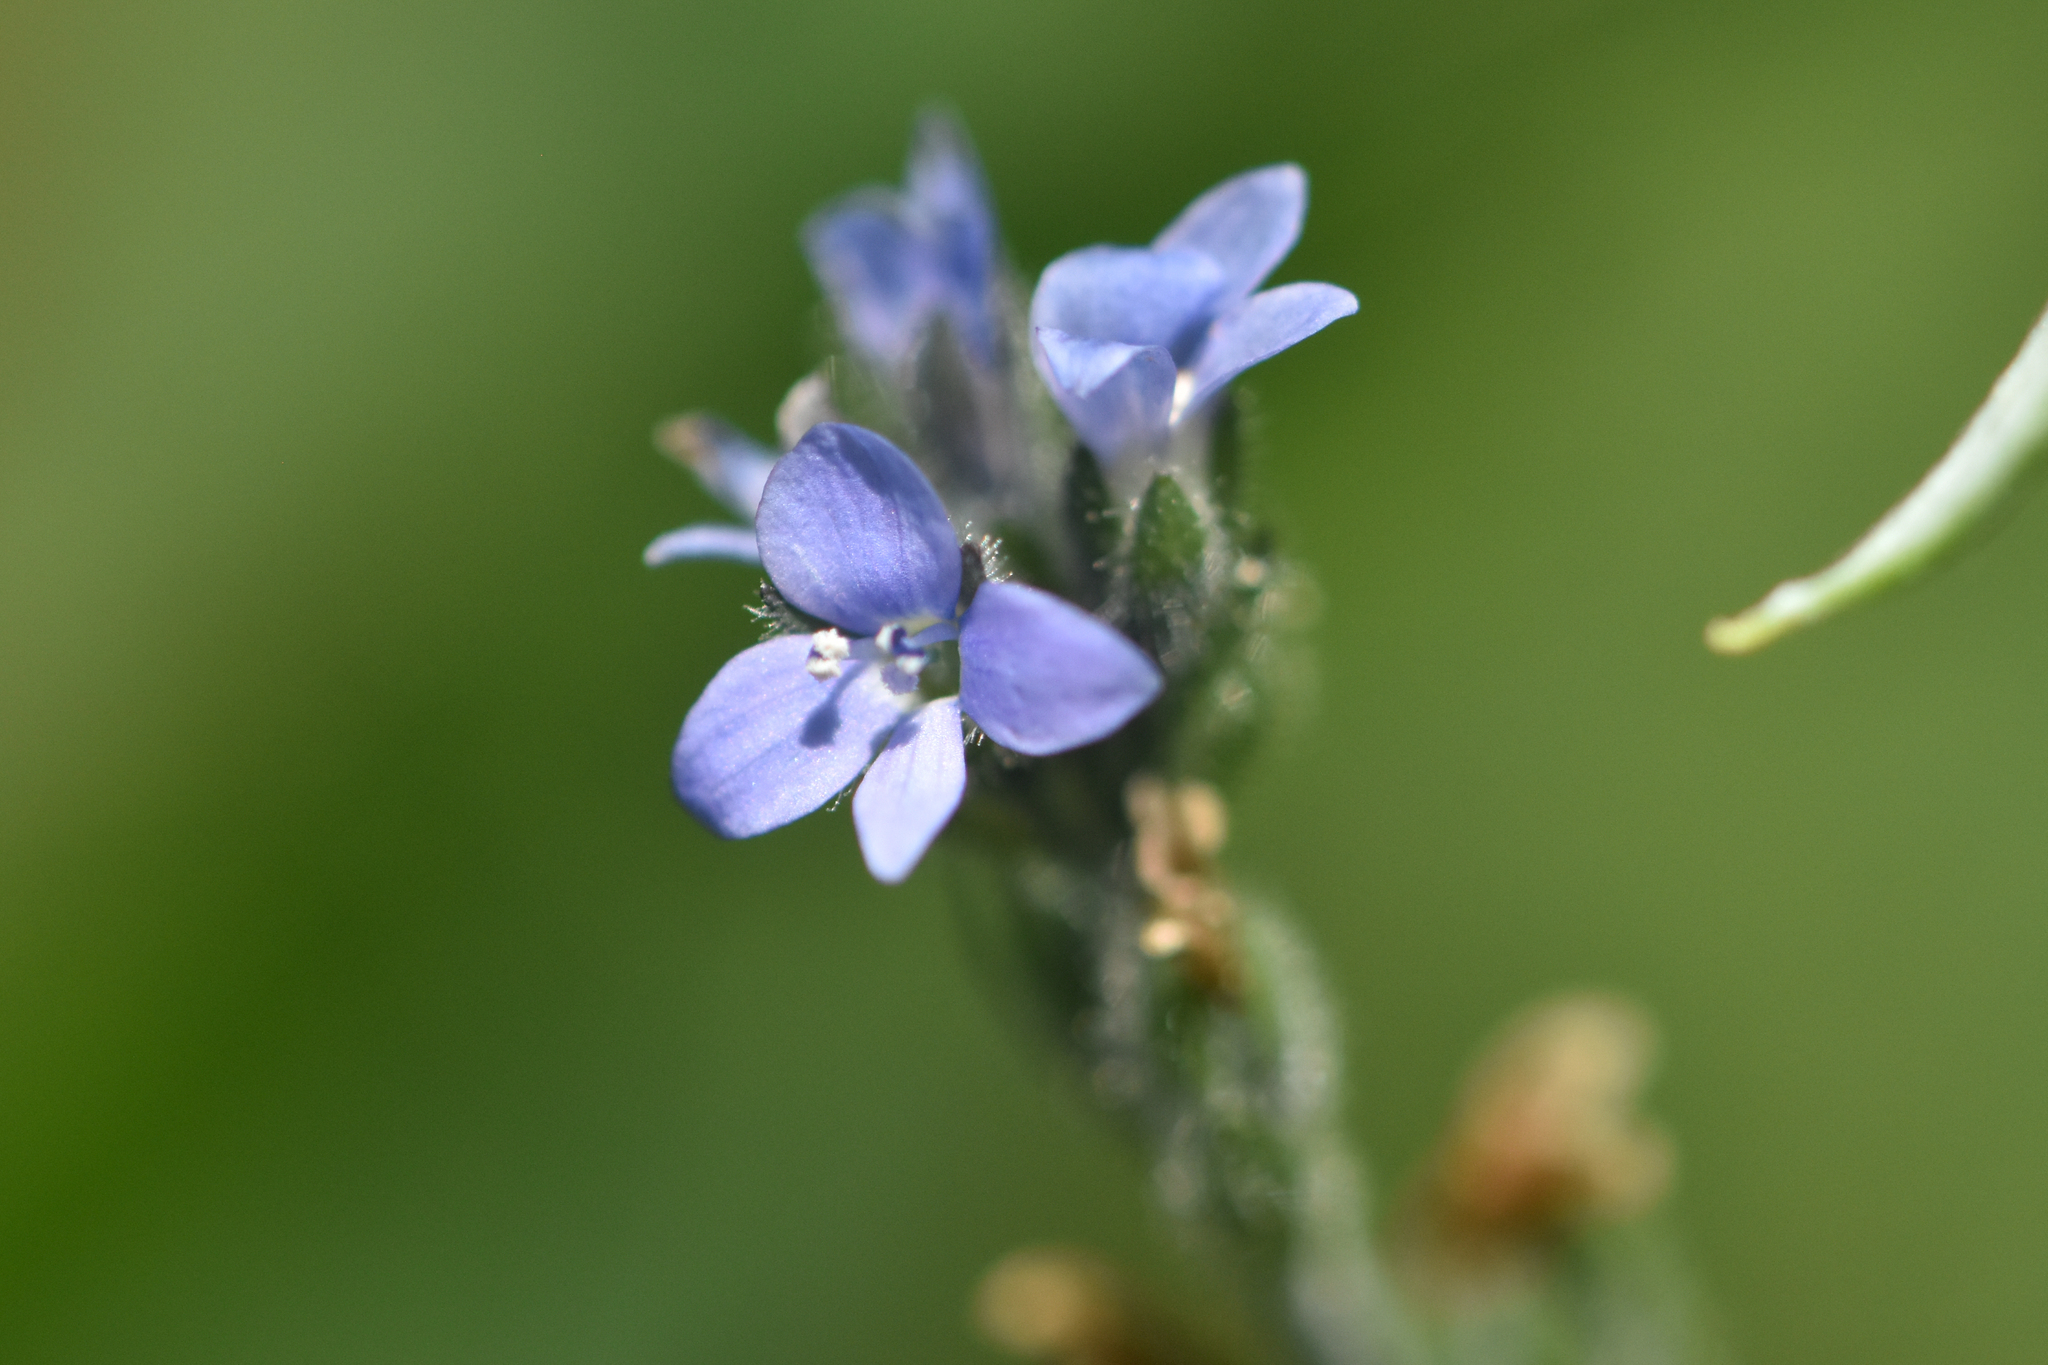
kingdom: Plantae
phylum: Tracheophyta
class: Magnoliopsida
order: Lamiales
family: Plantaginaceae
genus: Veronica
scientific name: Veronica wormskjoldii
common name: American alpine speedwell
